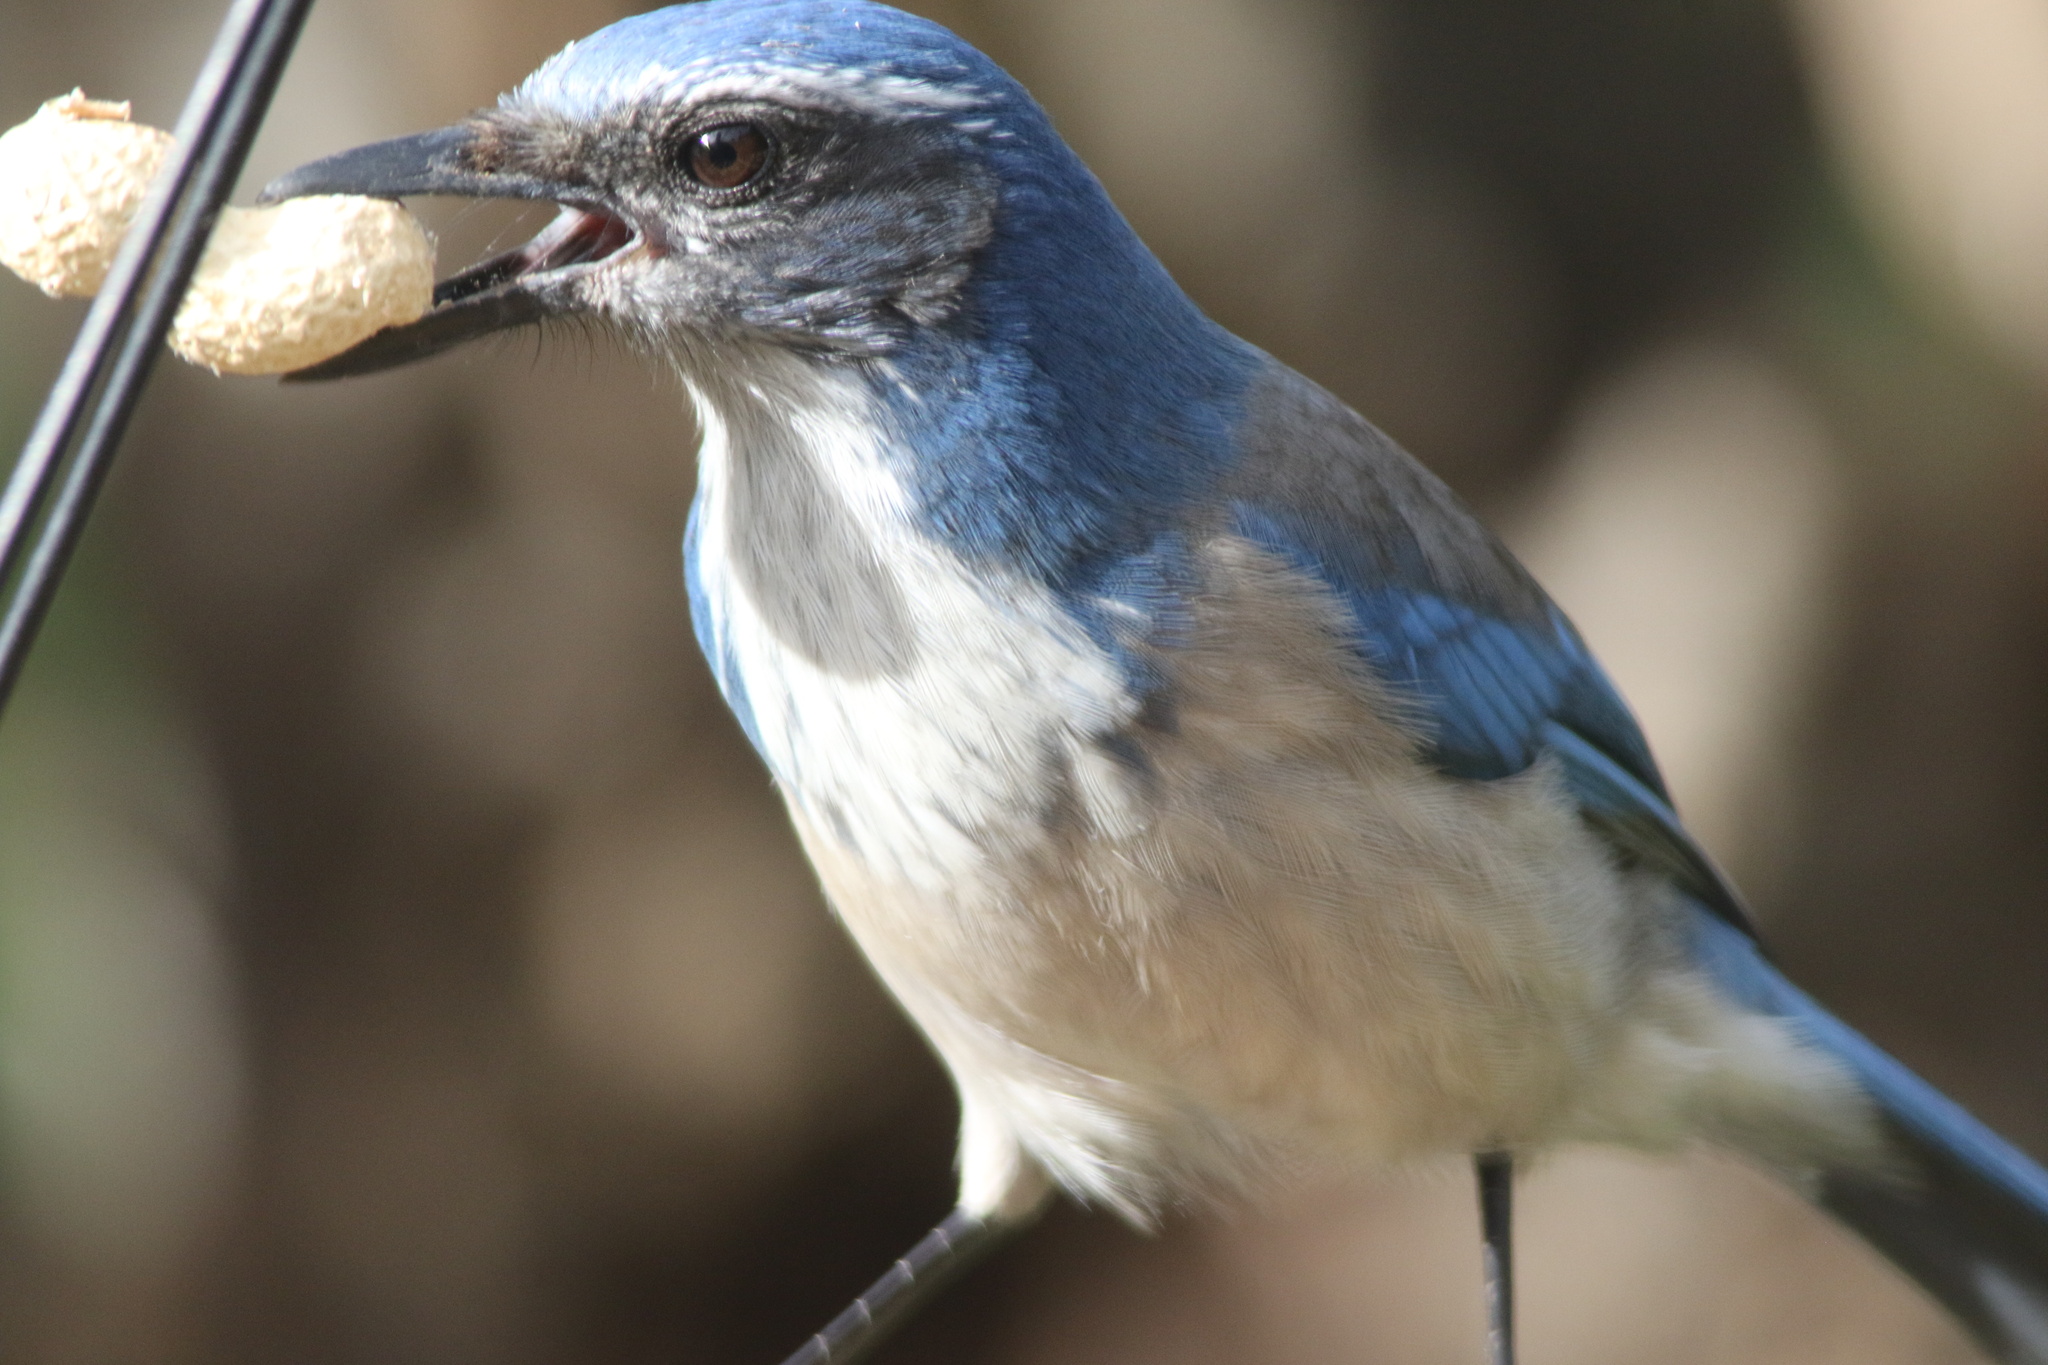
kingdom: Animalia
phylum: Chordata
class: Aves
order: Passeriformes
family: Corvidae
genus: Aphelocoma
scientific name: Aphelocoma californica
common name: California scrub-jay
